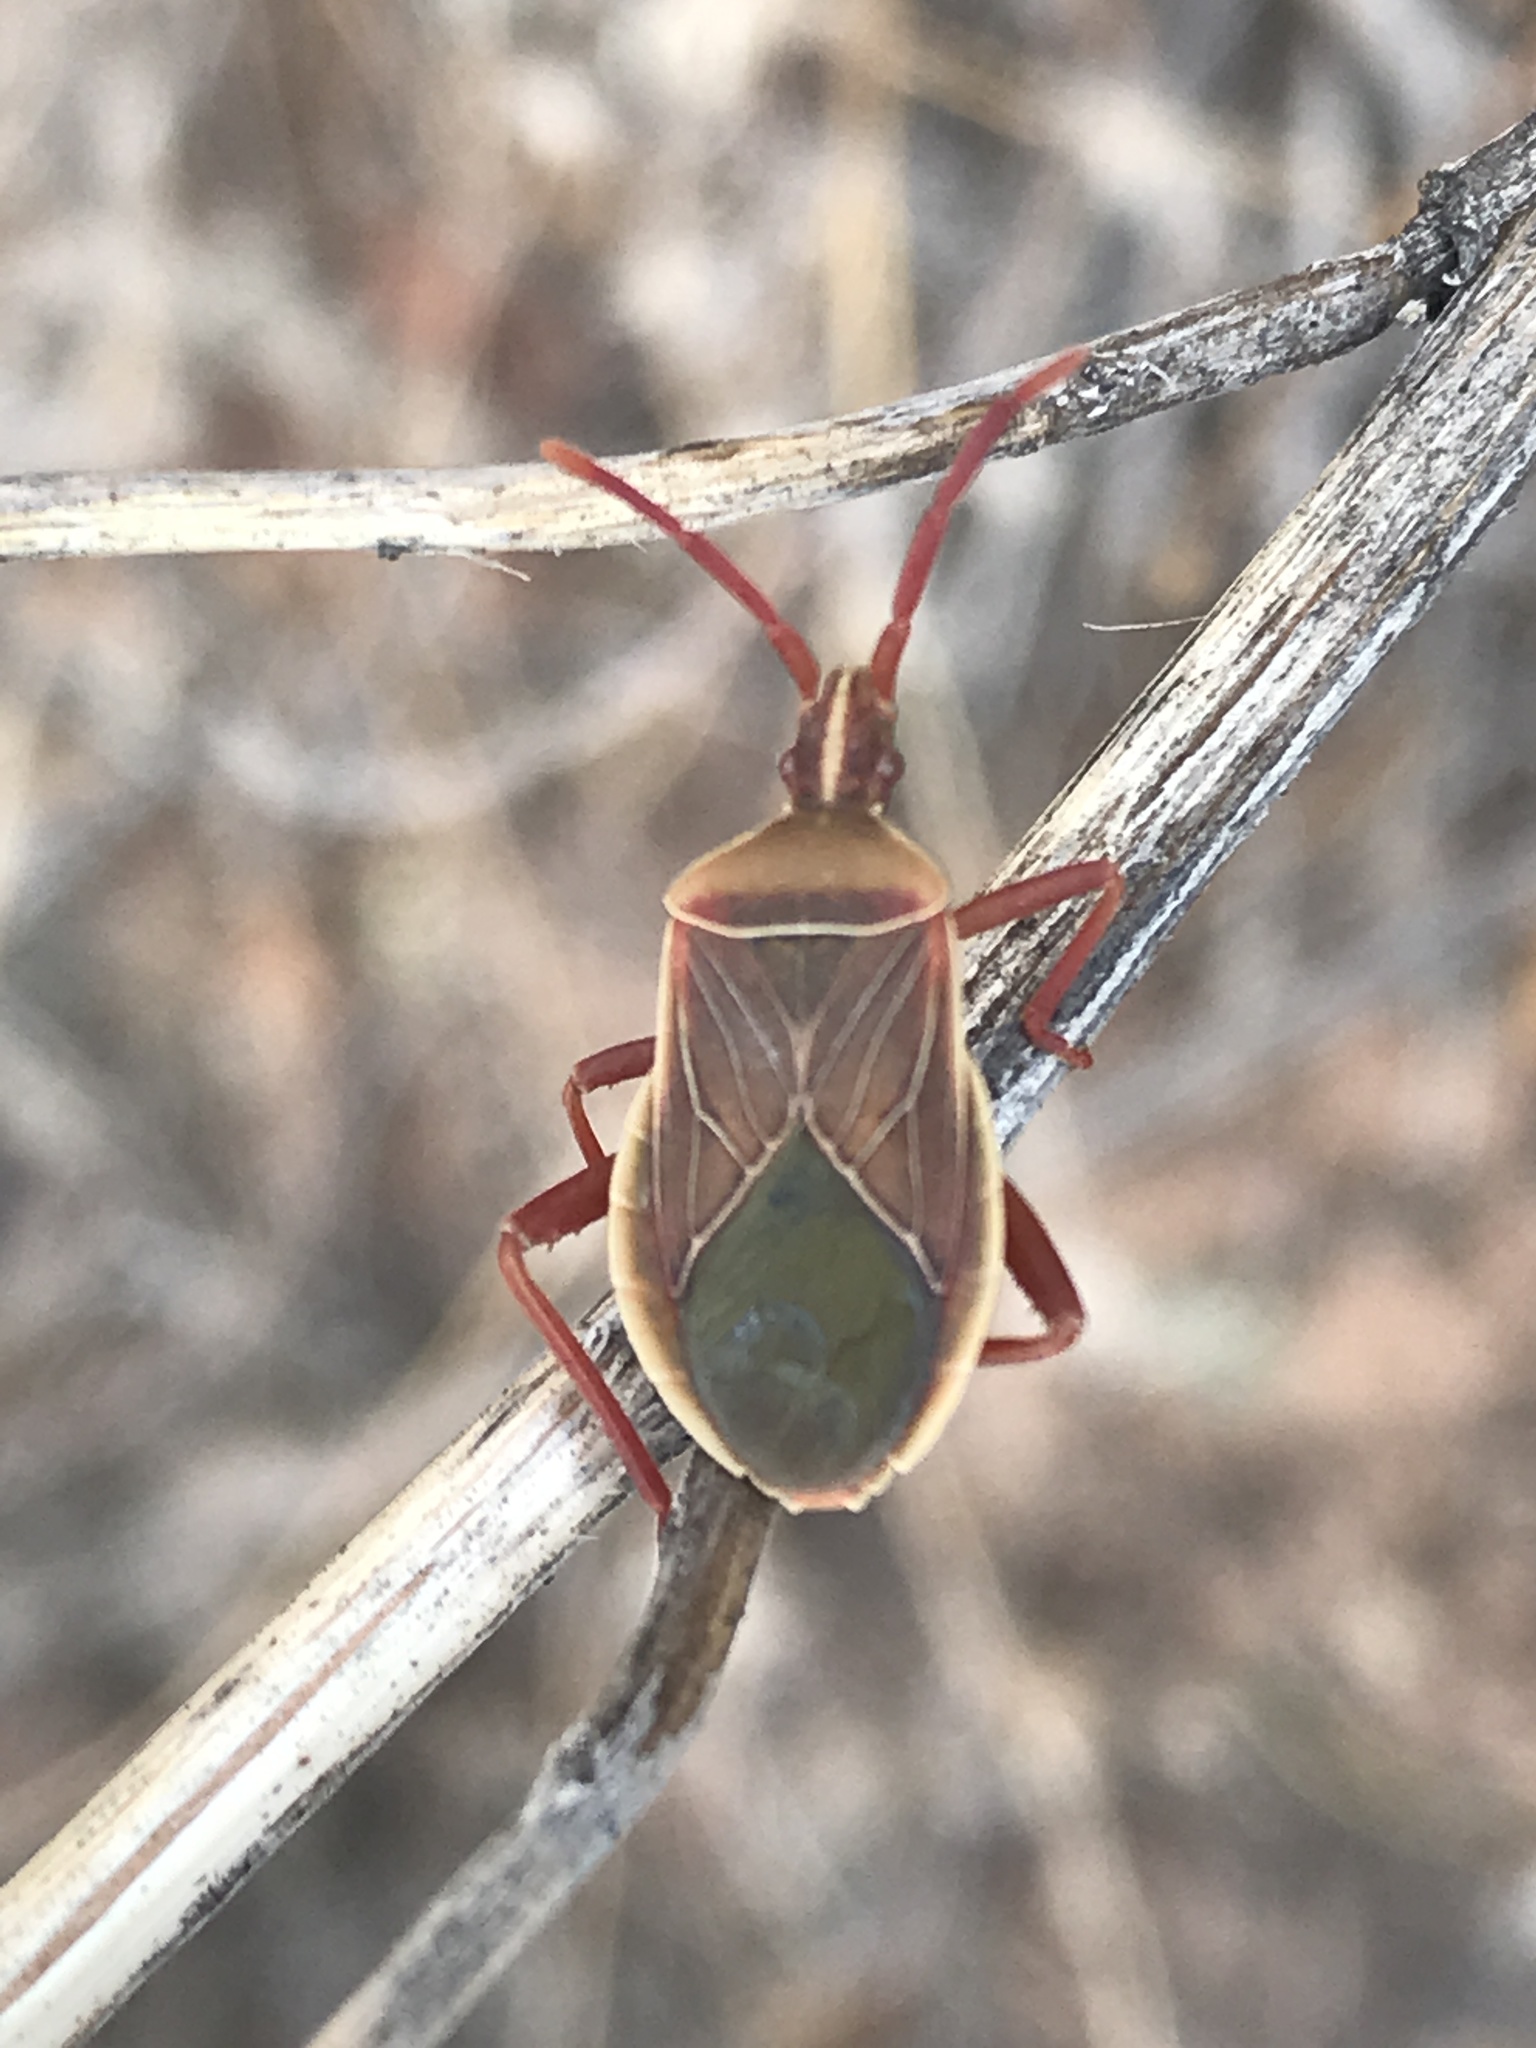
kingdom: Animalia
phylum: Arthropoda
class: Insecta
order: Hemiptera
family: Coreidae
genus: Chelinidea
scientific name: Chelinidea vittiger
